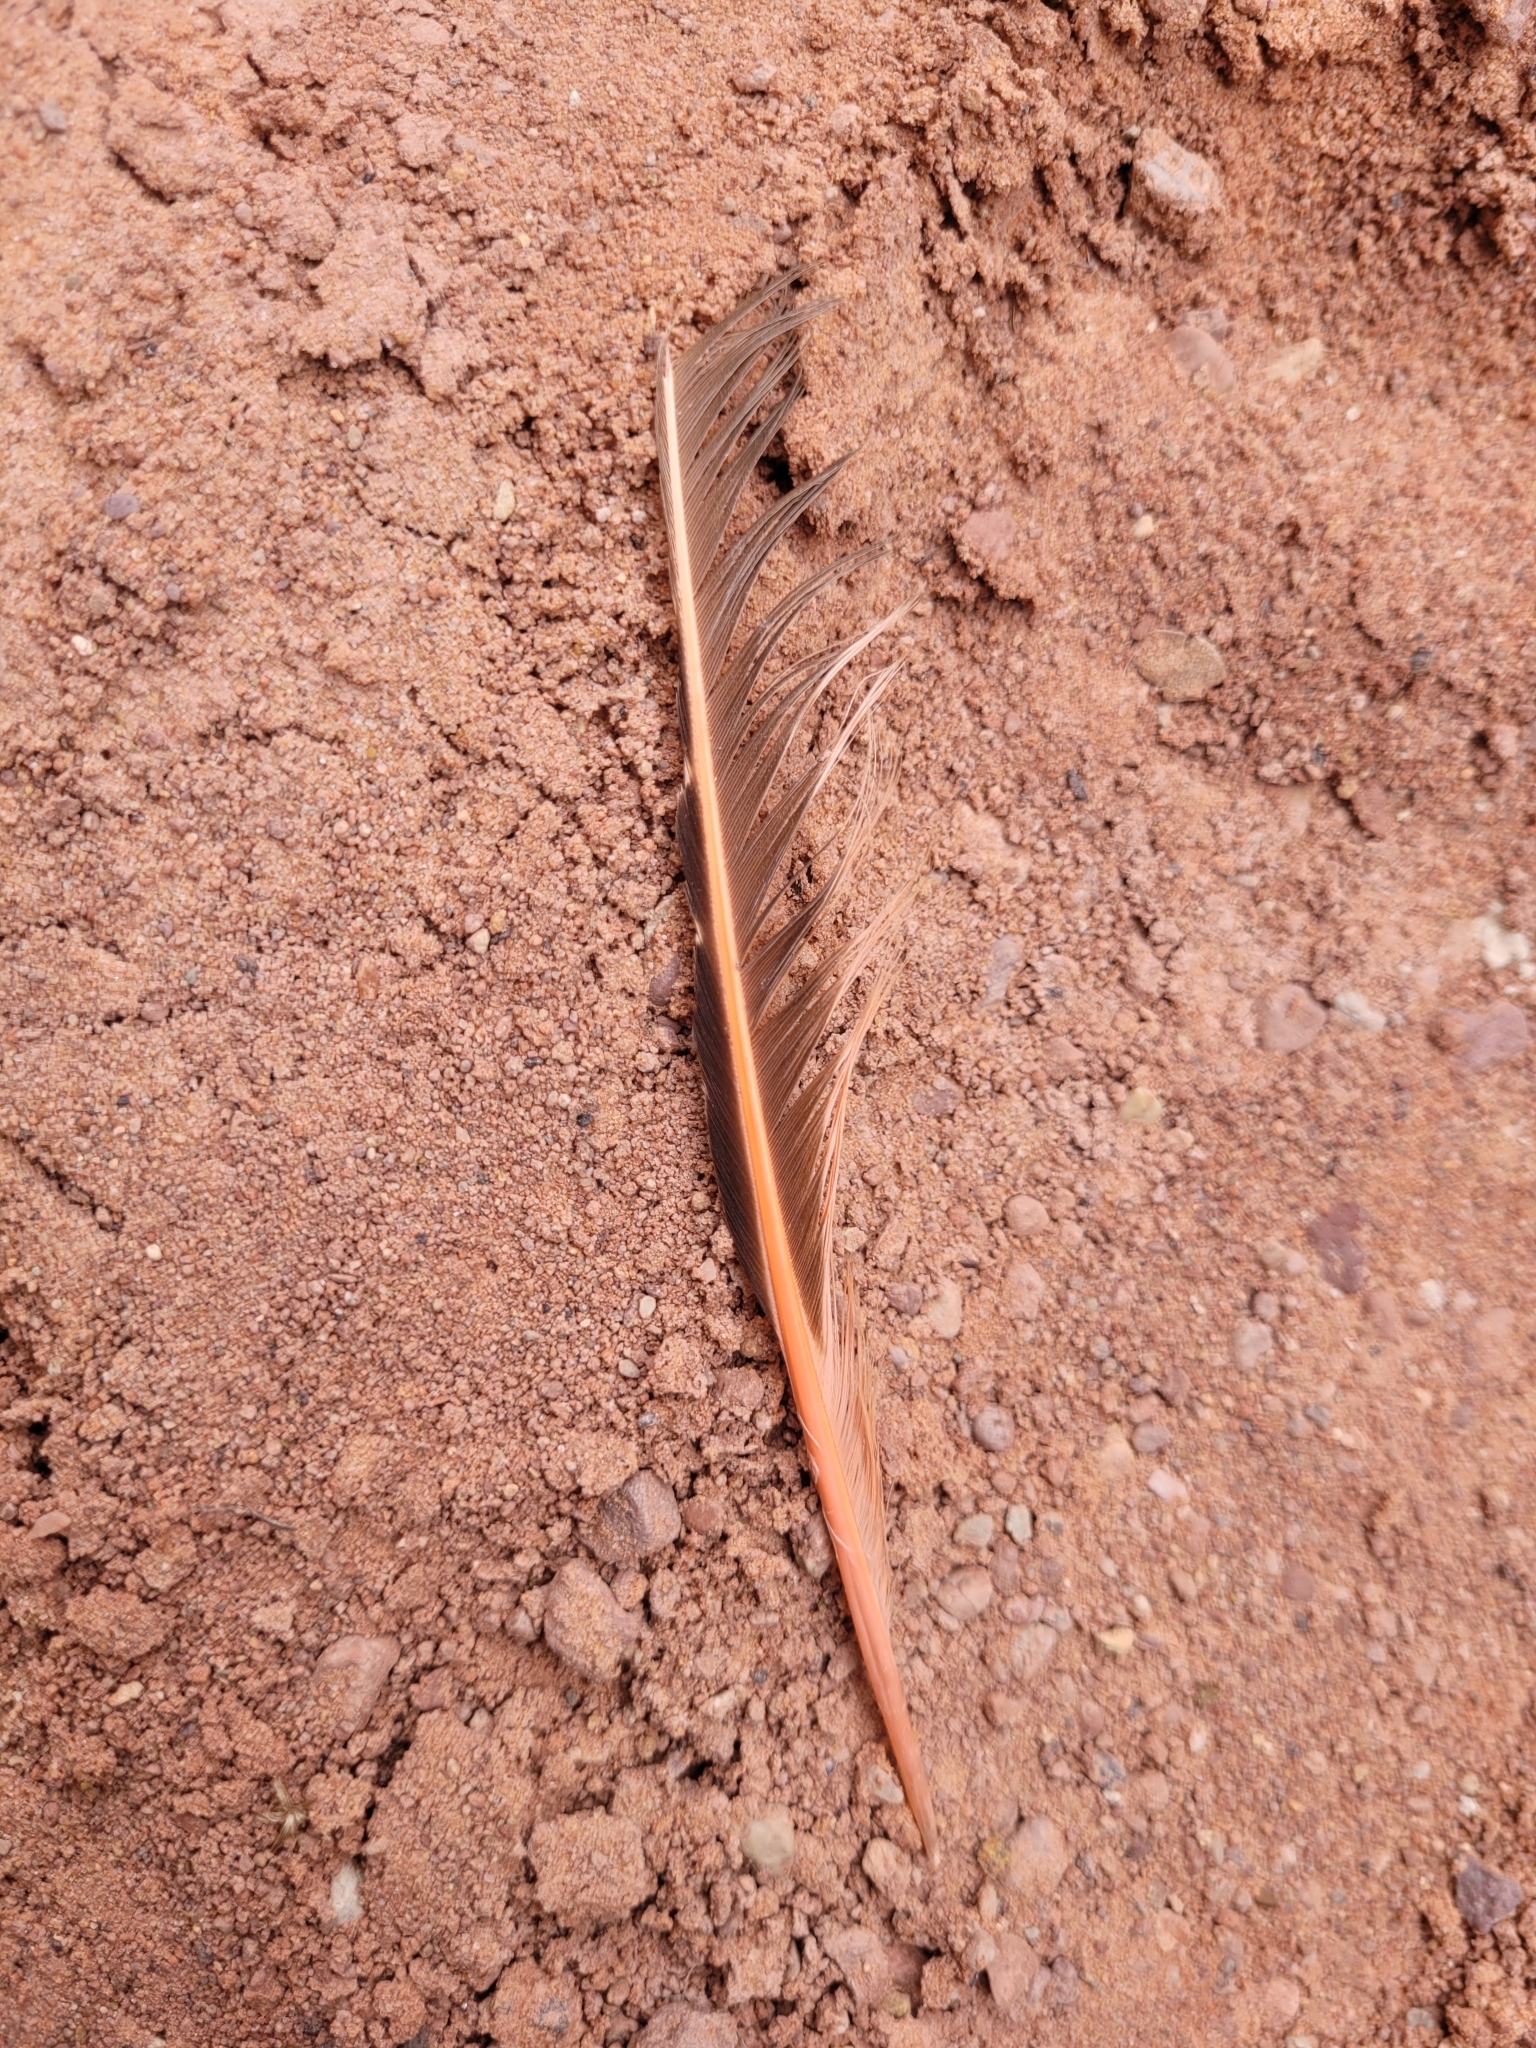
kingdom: Animalia
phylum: Chordata
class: Aves
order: Piciformes
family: Picidae
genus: Colaptes
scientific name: Colaptes auratus
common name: Northern flicker
